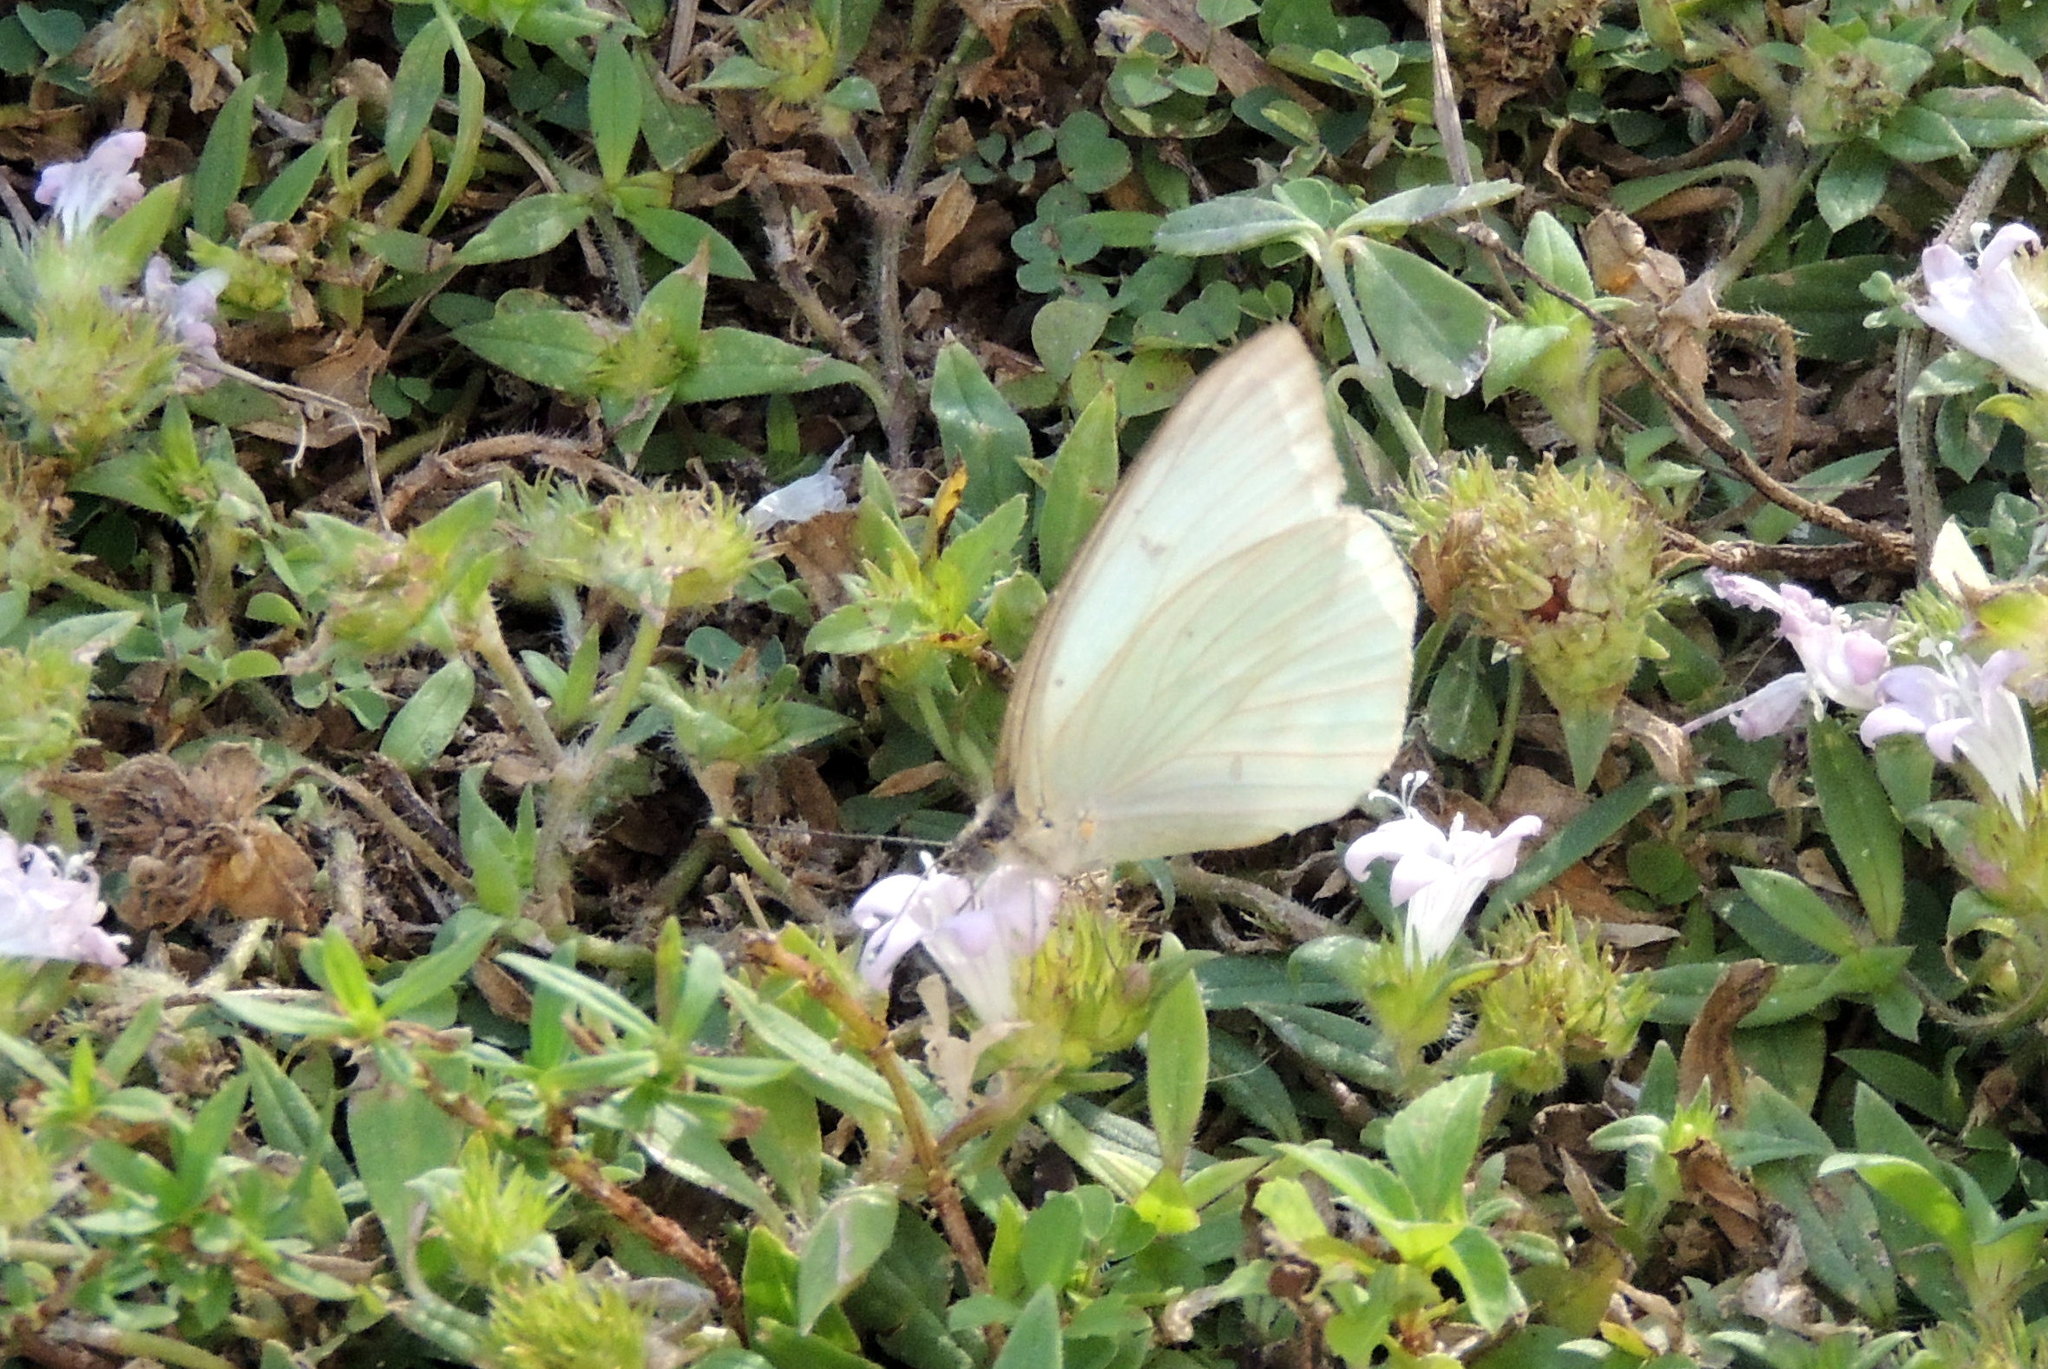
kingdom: Animalia
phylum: Arthropoda
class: Insecta
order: Lepidoptera
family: Pieridae
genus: Ascia
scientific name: Ascia monuste
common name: Great southern white
